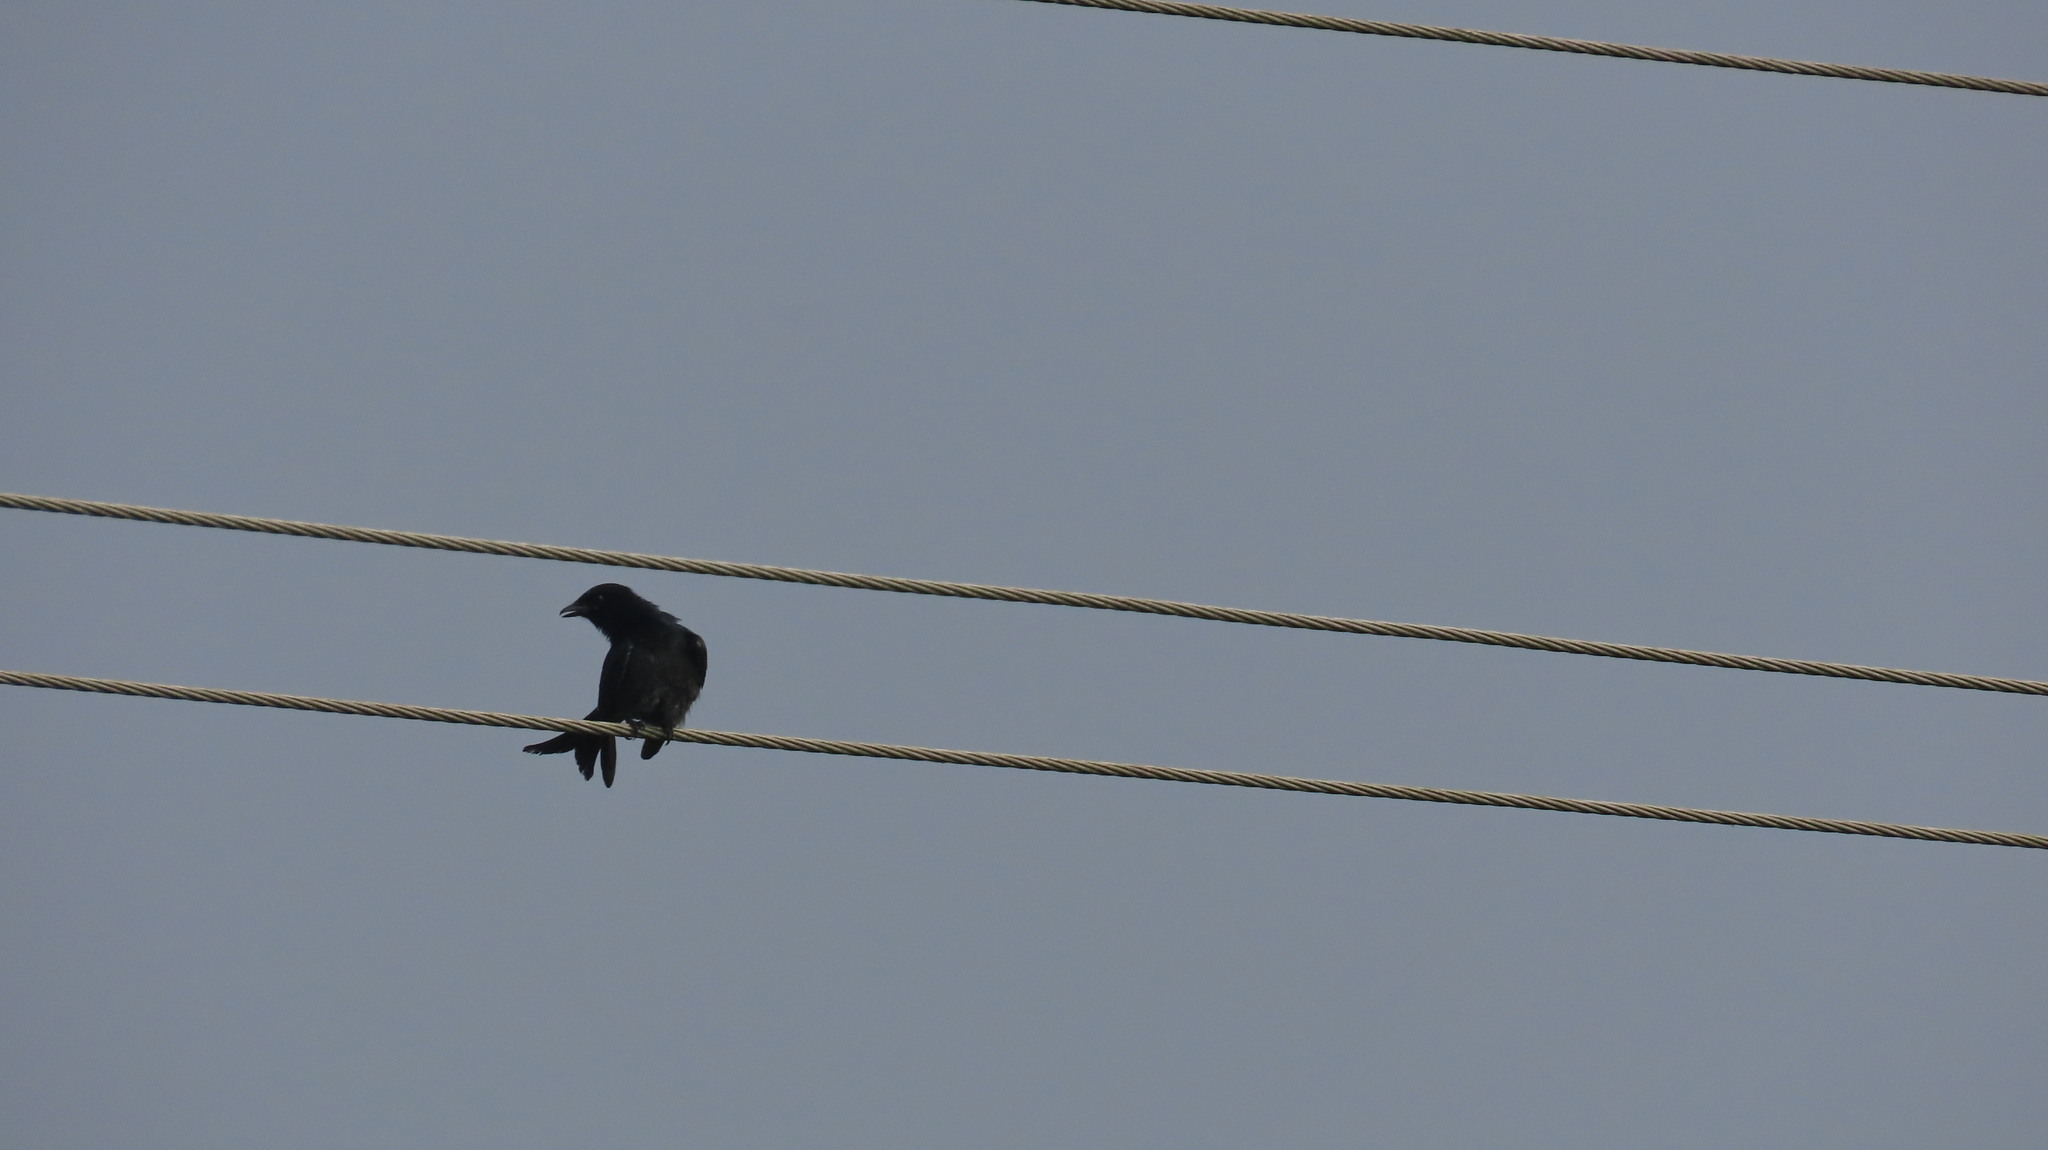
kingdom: Animalia
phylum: Chordata
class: Aves
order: Passeriformes
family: Dicruridae
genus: Dicrurus
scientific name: Dicrurus macrocercus
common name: Black drongo
